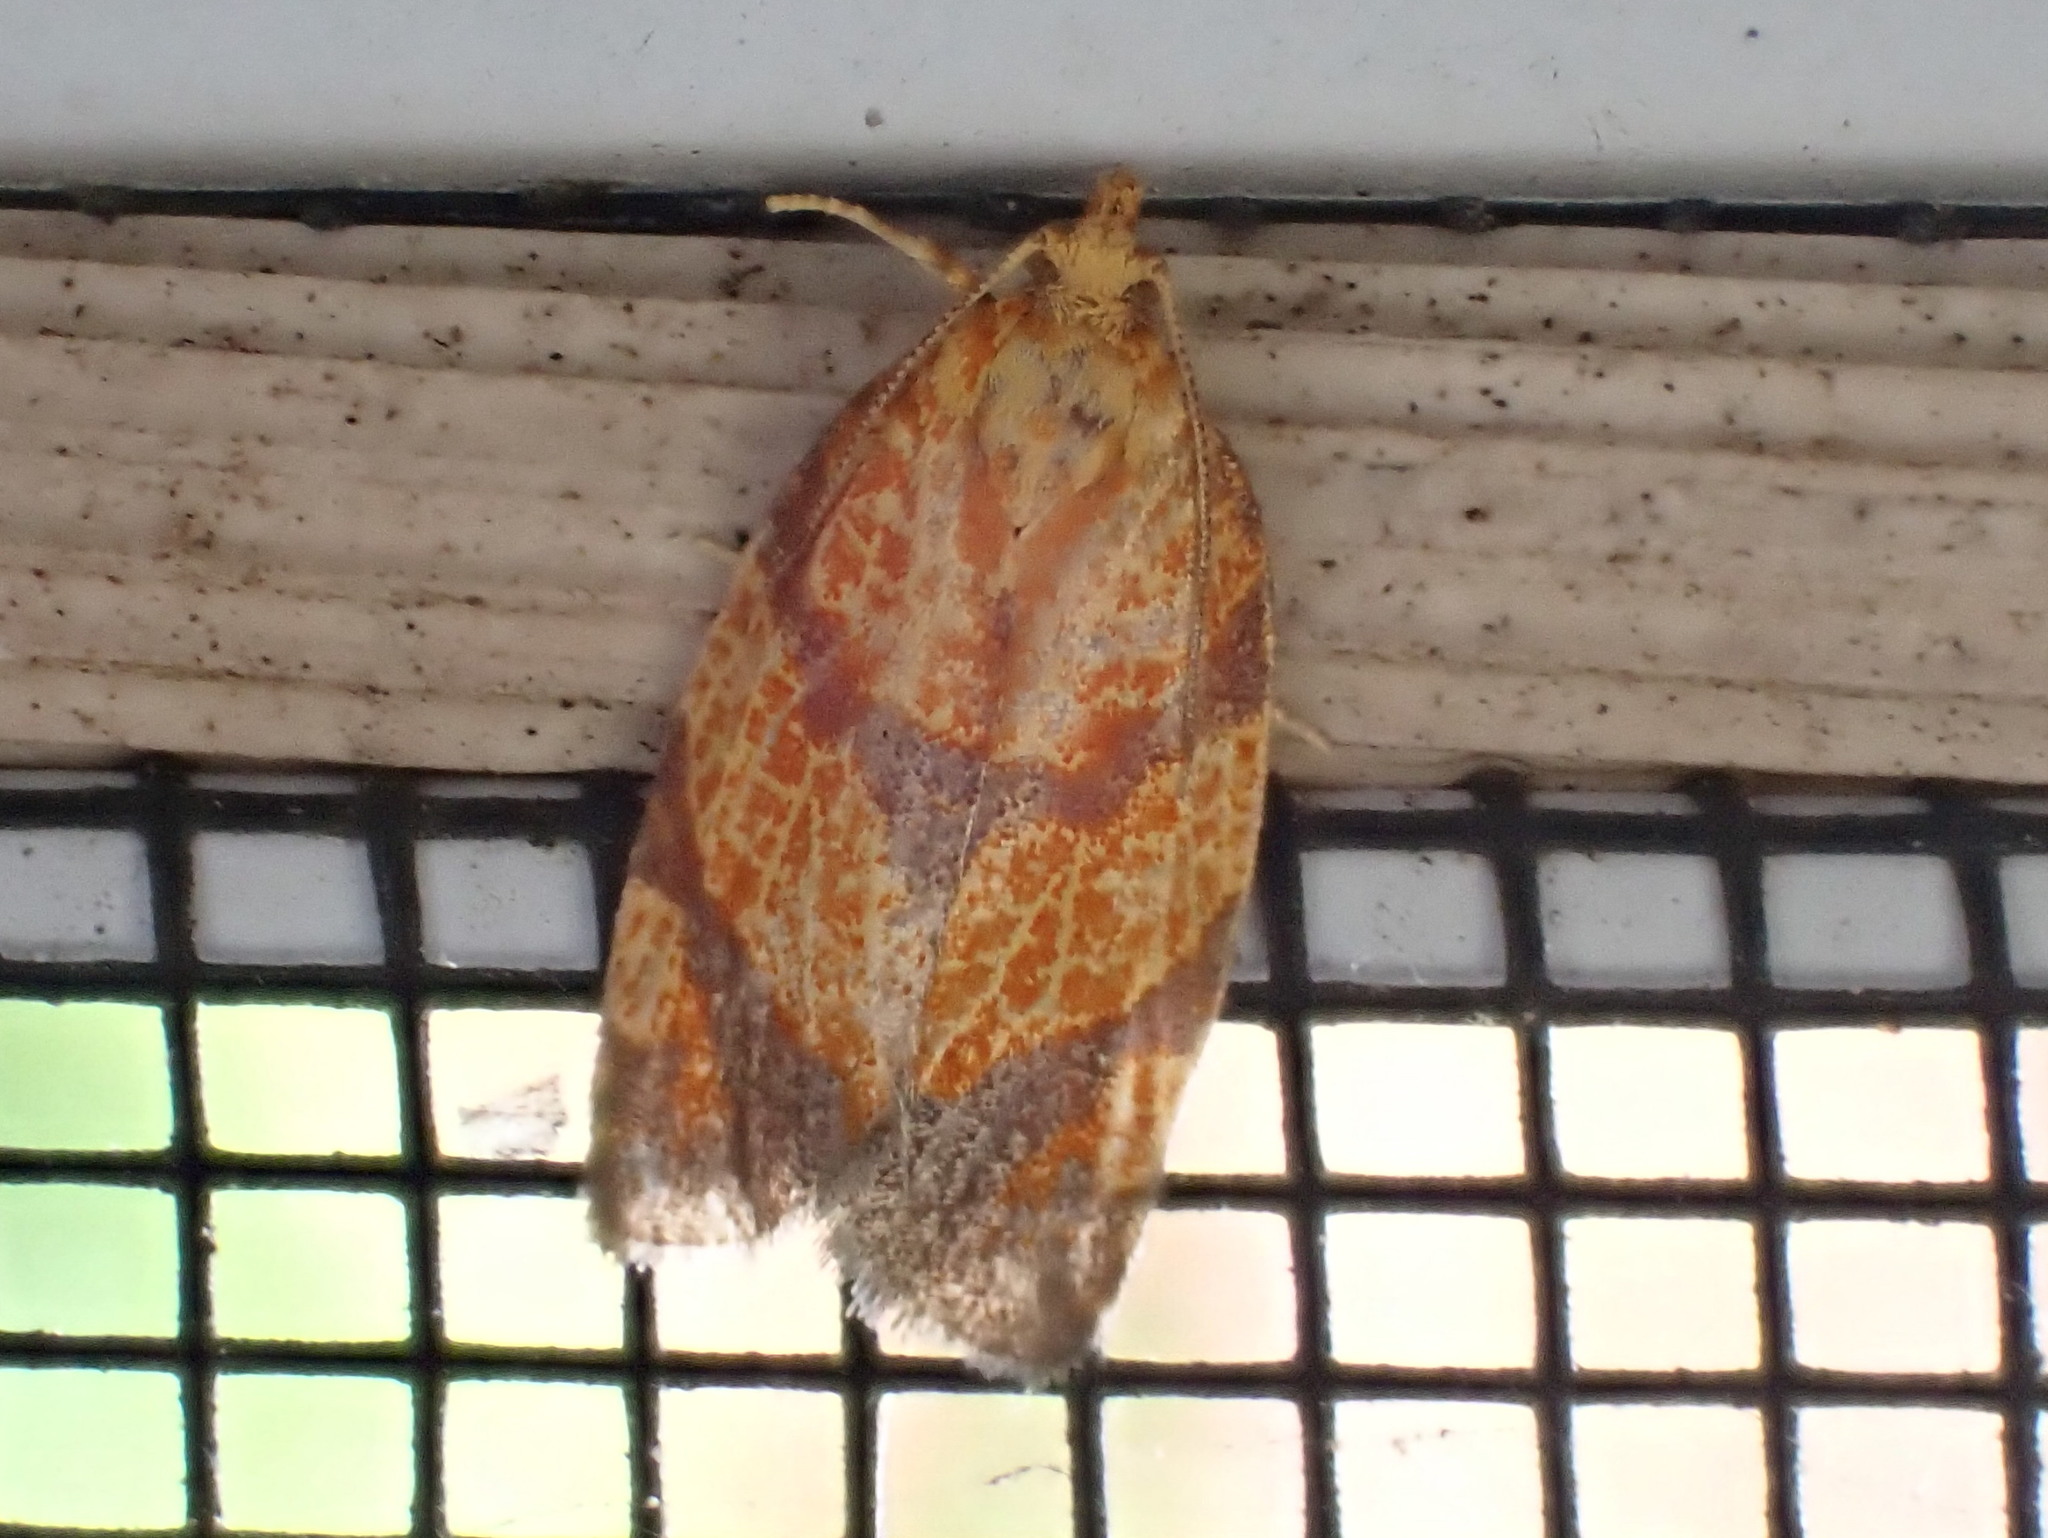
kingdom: Animalia
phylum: Arthropoda
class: Insecta
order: Lepidoptera
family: Tortricidae
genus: Argyrotaenia
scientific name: Argyrotaenia quadrifasciana
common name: Four-lined leafroller moth
